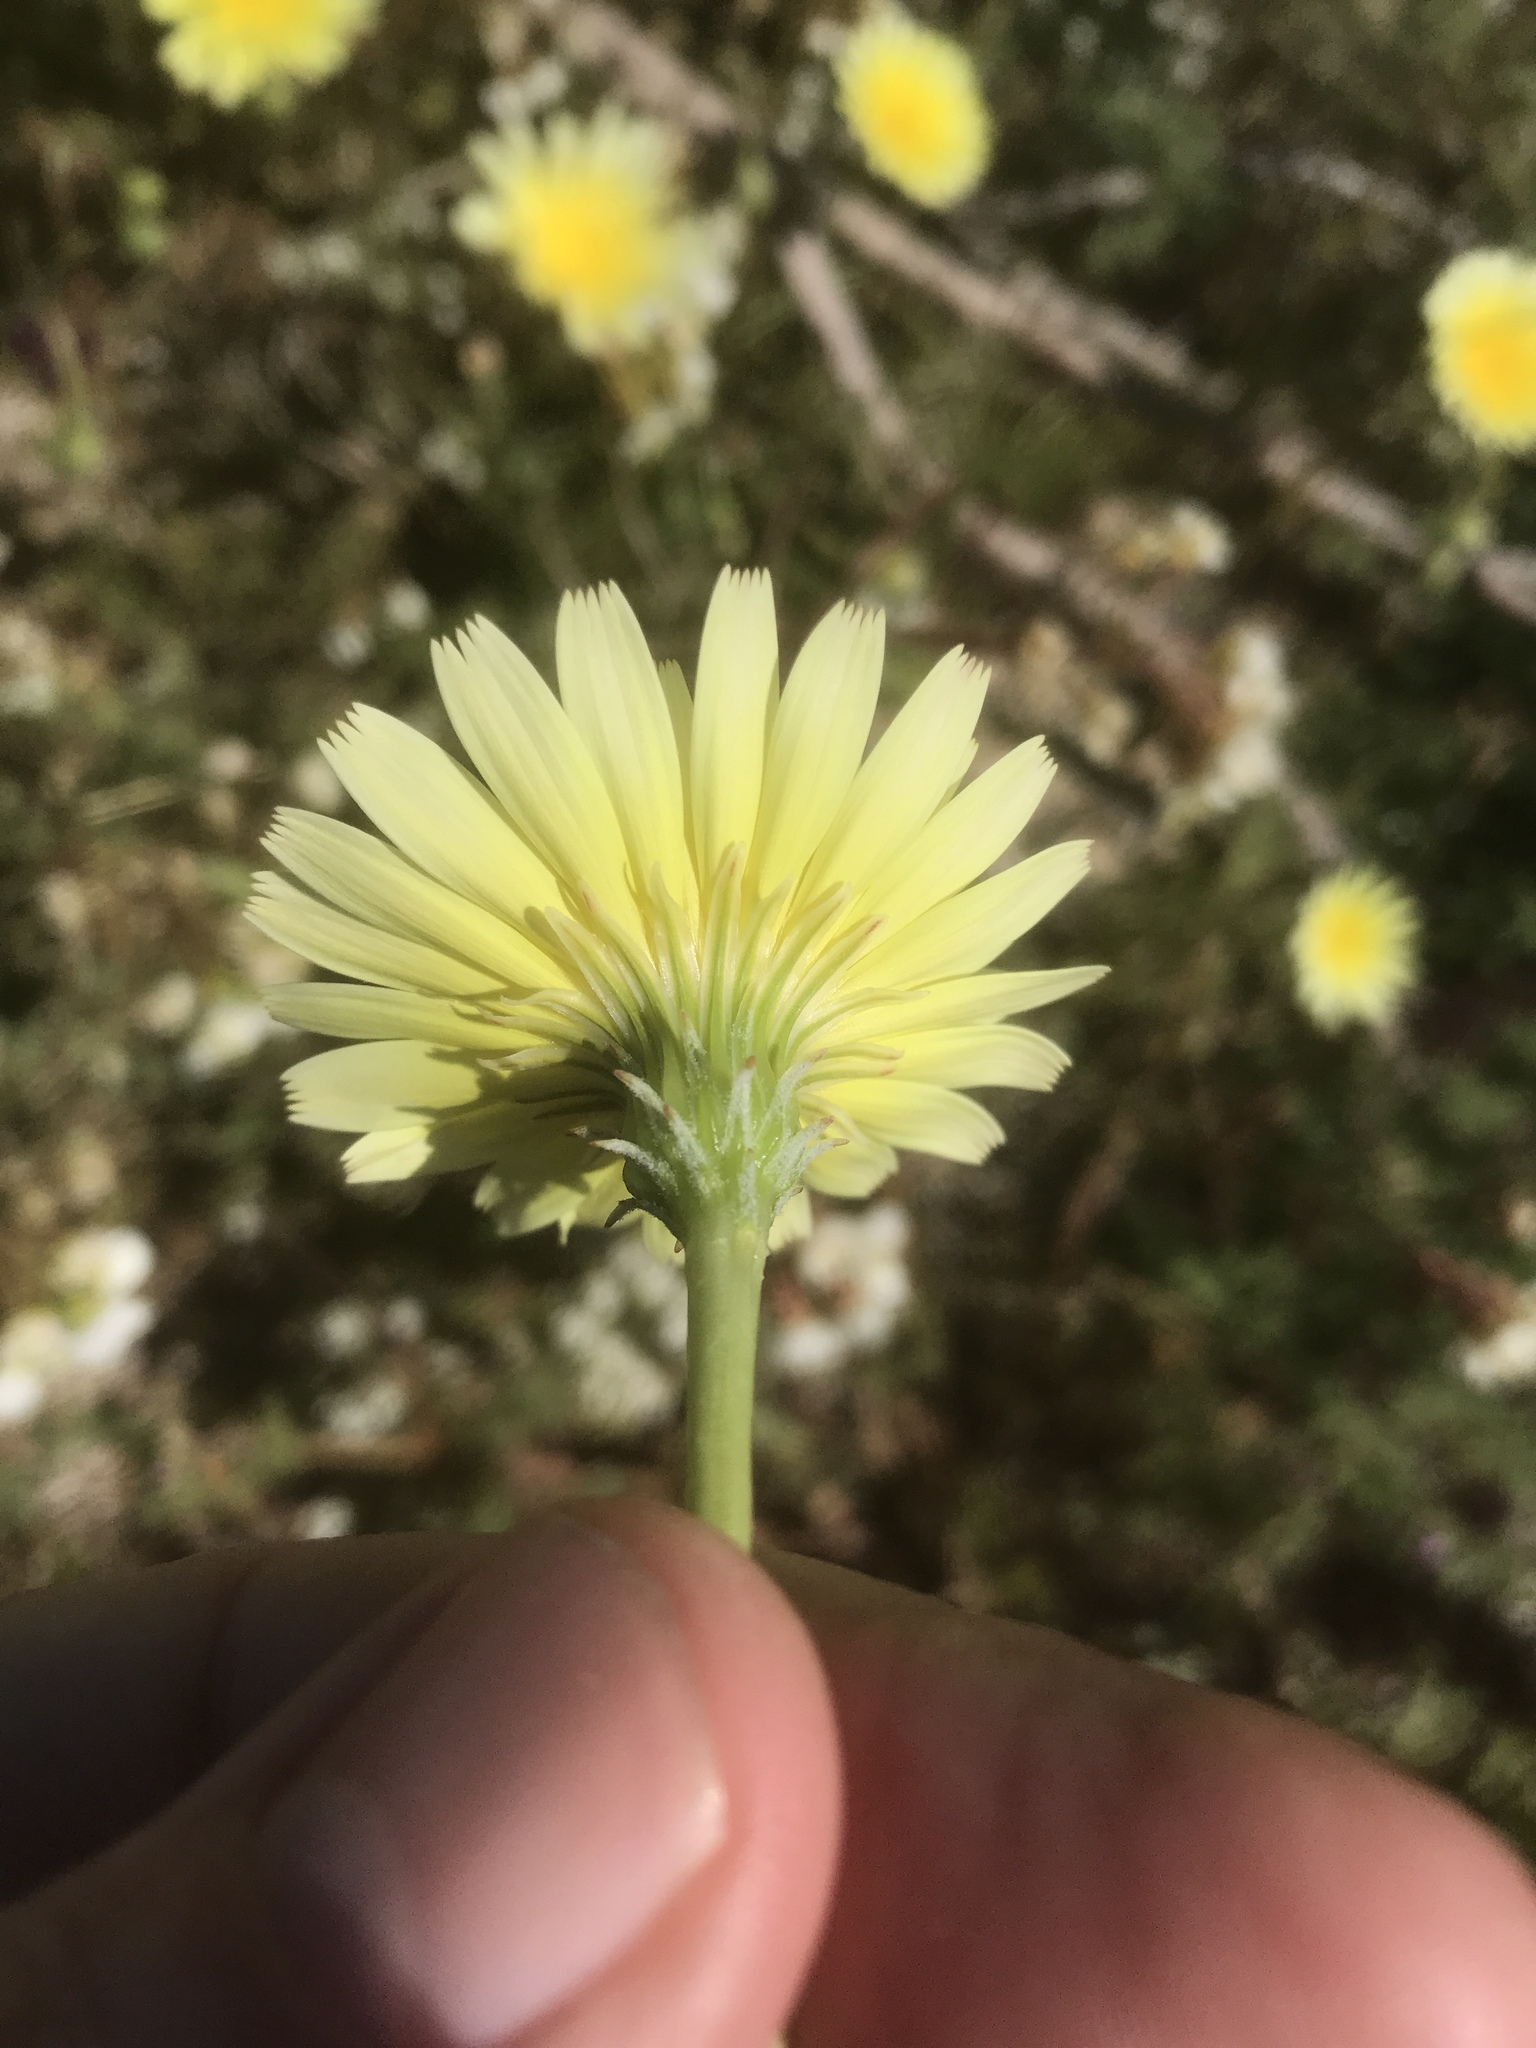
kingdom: Plantae
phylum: Tracheophyta
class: Magnoliopsida
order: Asterales
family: Asteraceae
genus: Malacothrix
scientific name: Malacothrix glabrata
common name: Smooth desert-dandelion
